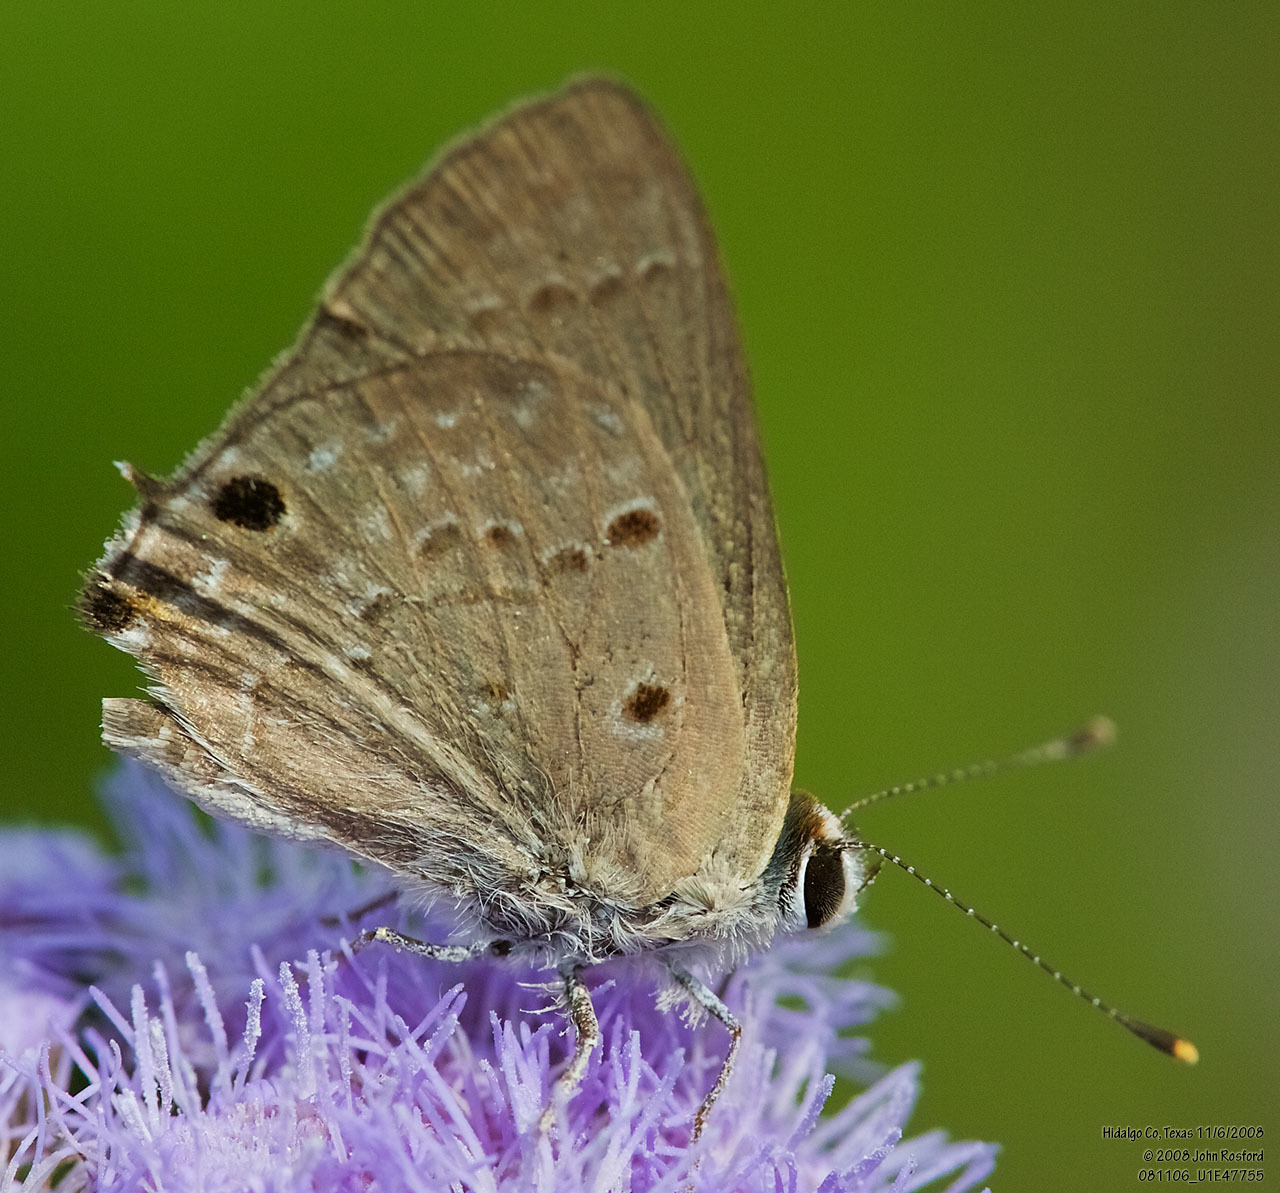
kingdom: Animalia
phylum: Arthropoda
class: Insecta
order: Lepidoptera
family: Lycaenidae
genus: Callicista
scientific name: Callicista columella
